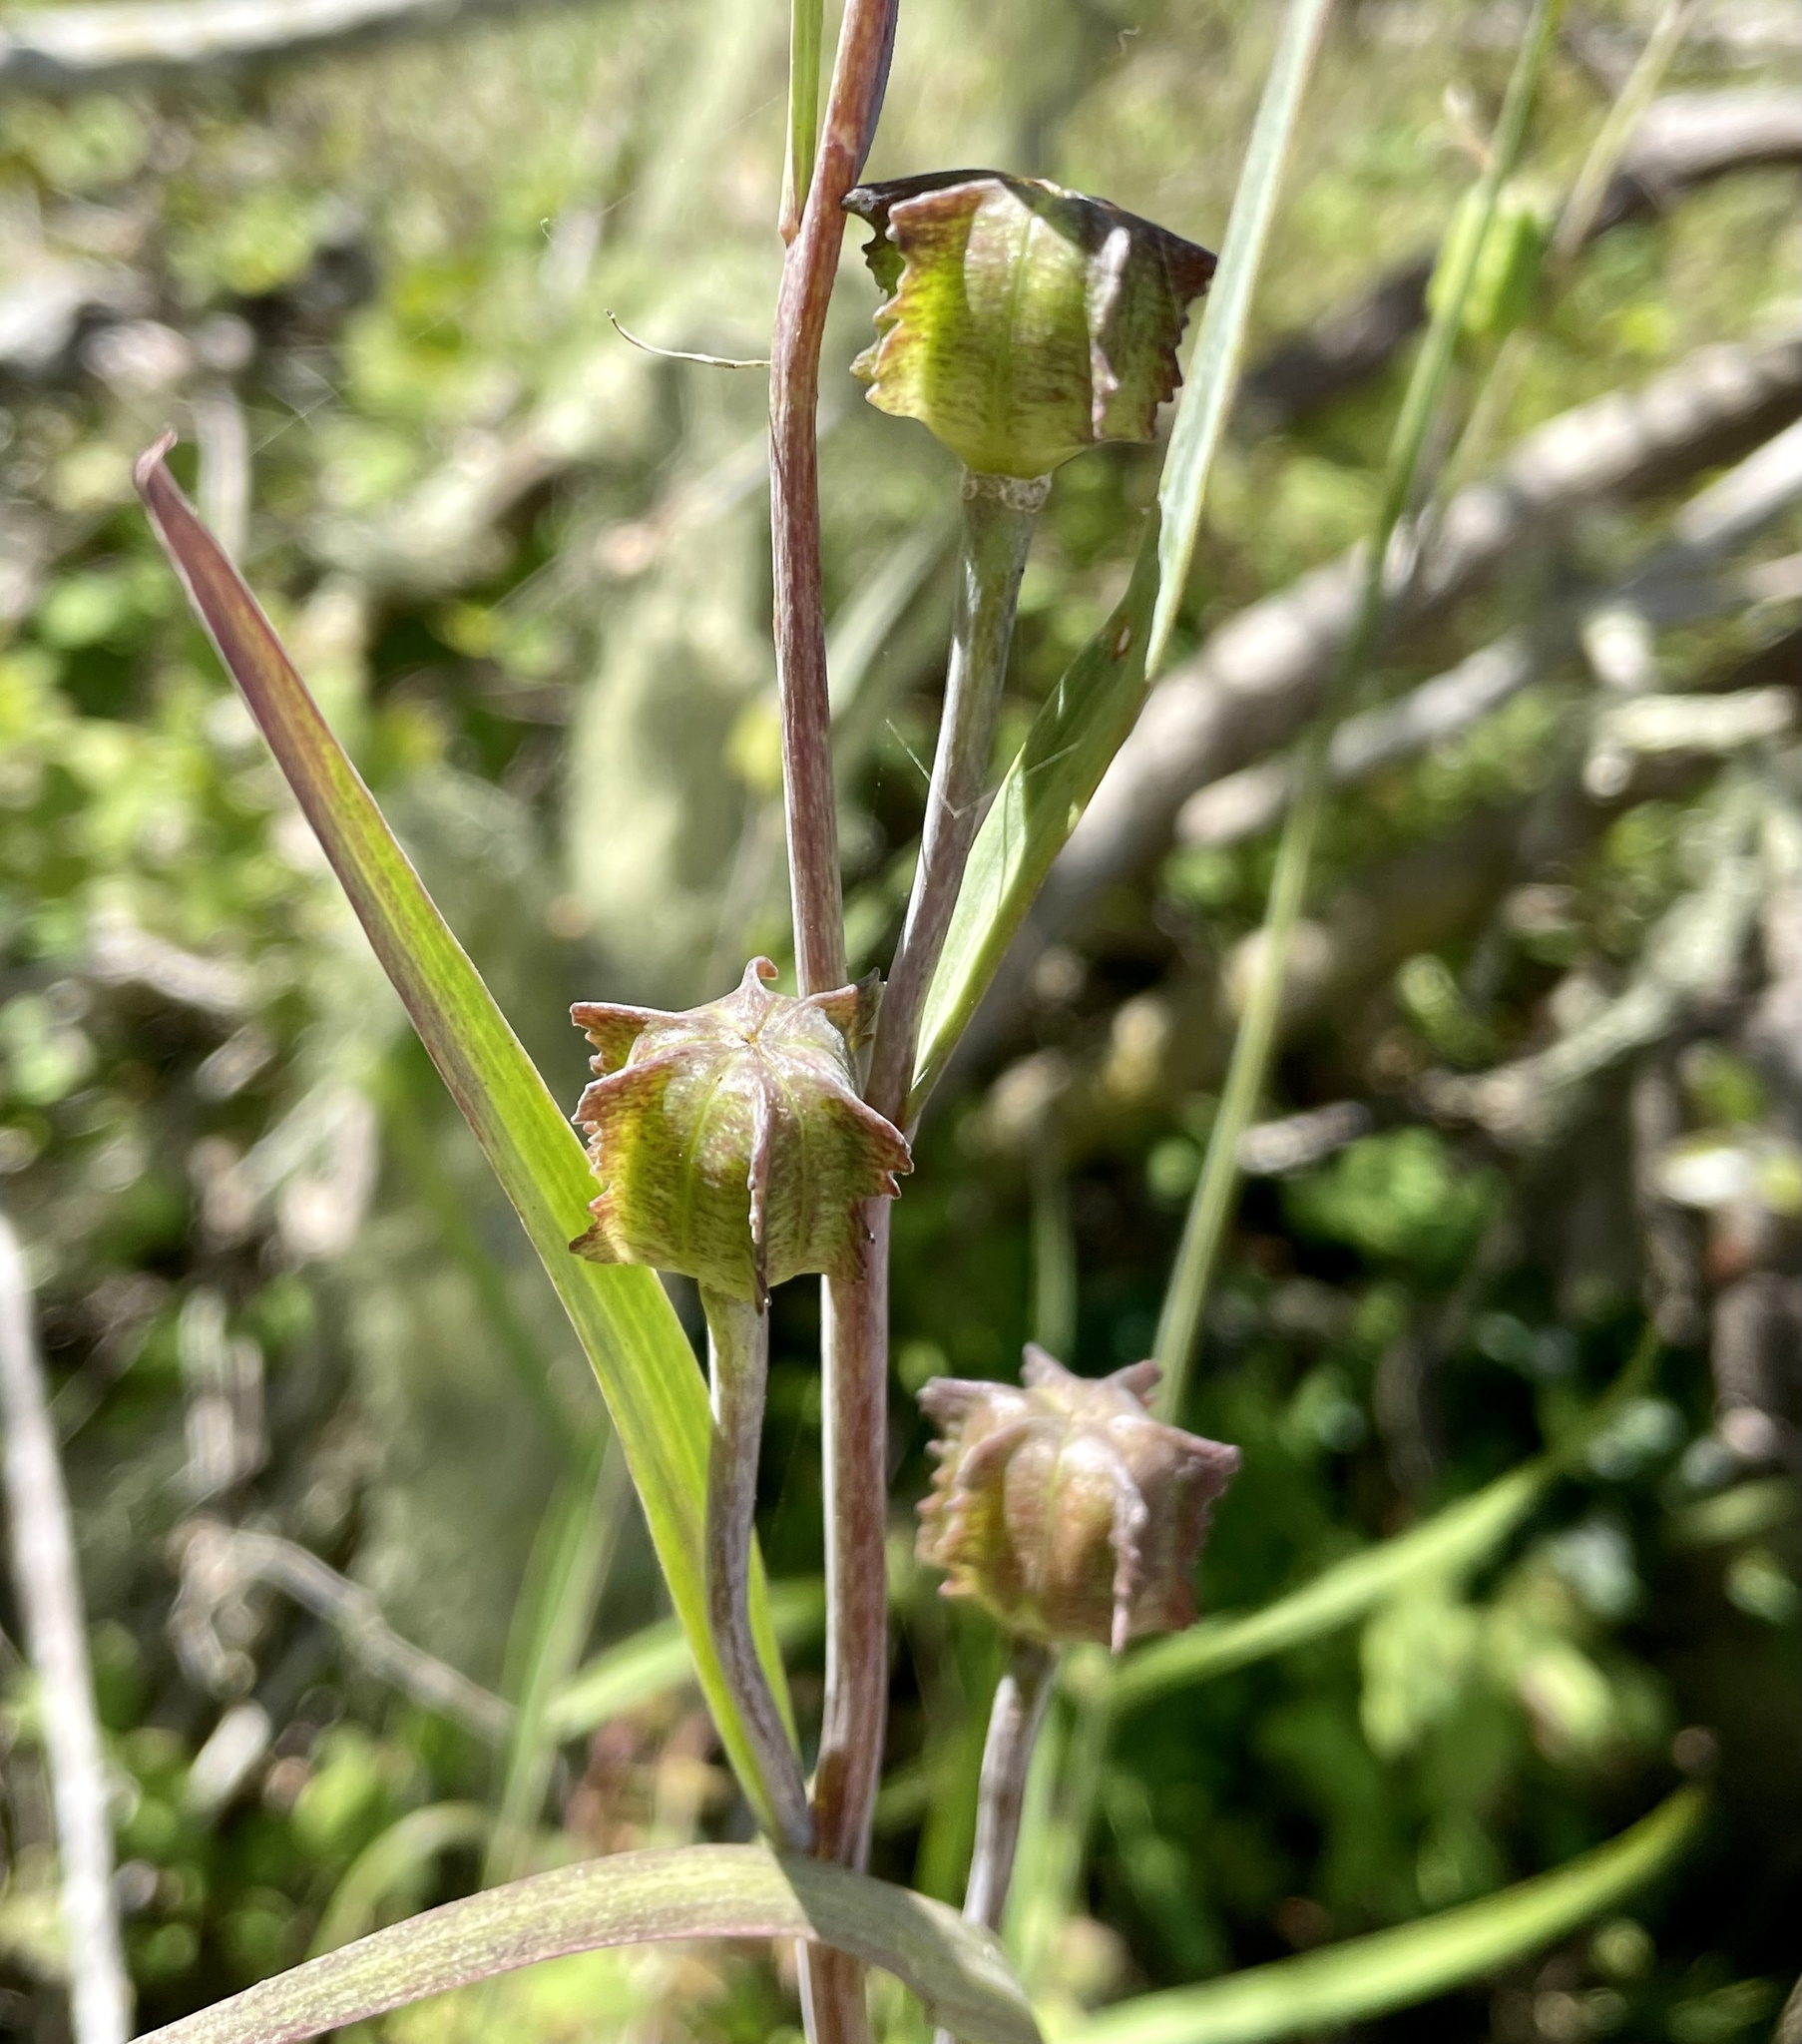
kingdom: Plantae
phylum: Tracheophyta
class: Liliopsida
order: Liliales
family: Liliaceae
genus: Fritillaria
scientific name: Fritillaria affinis
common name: Ojai fritillary
